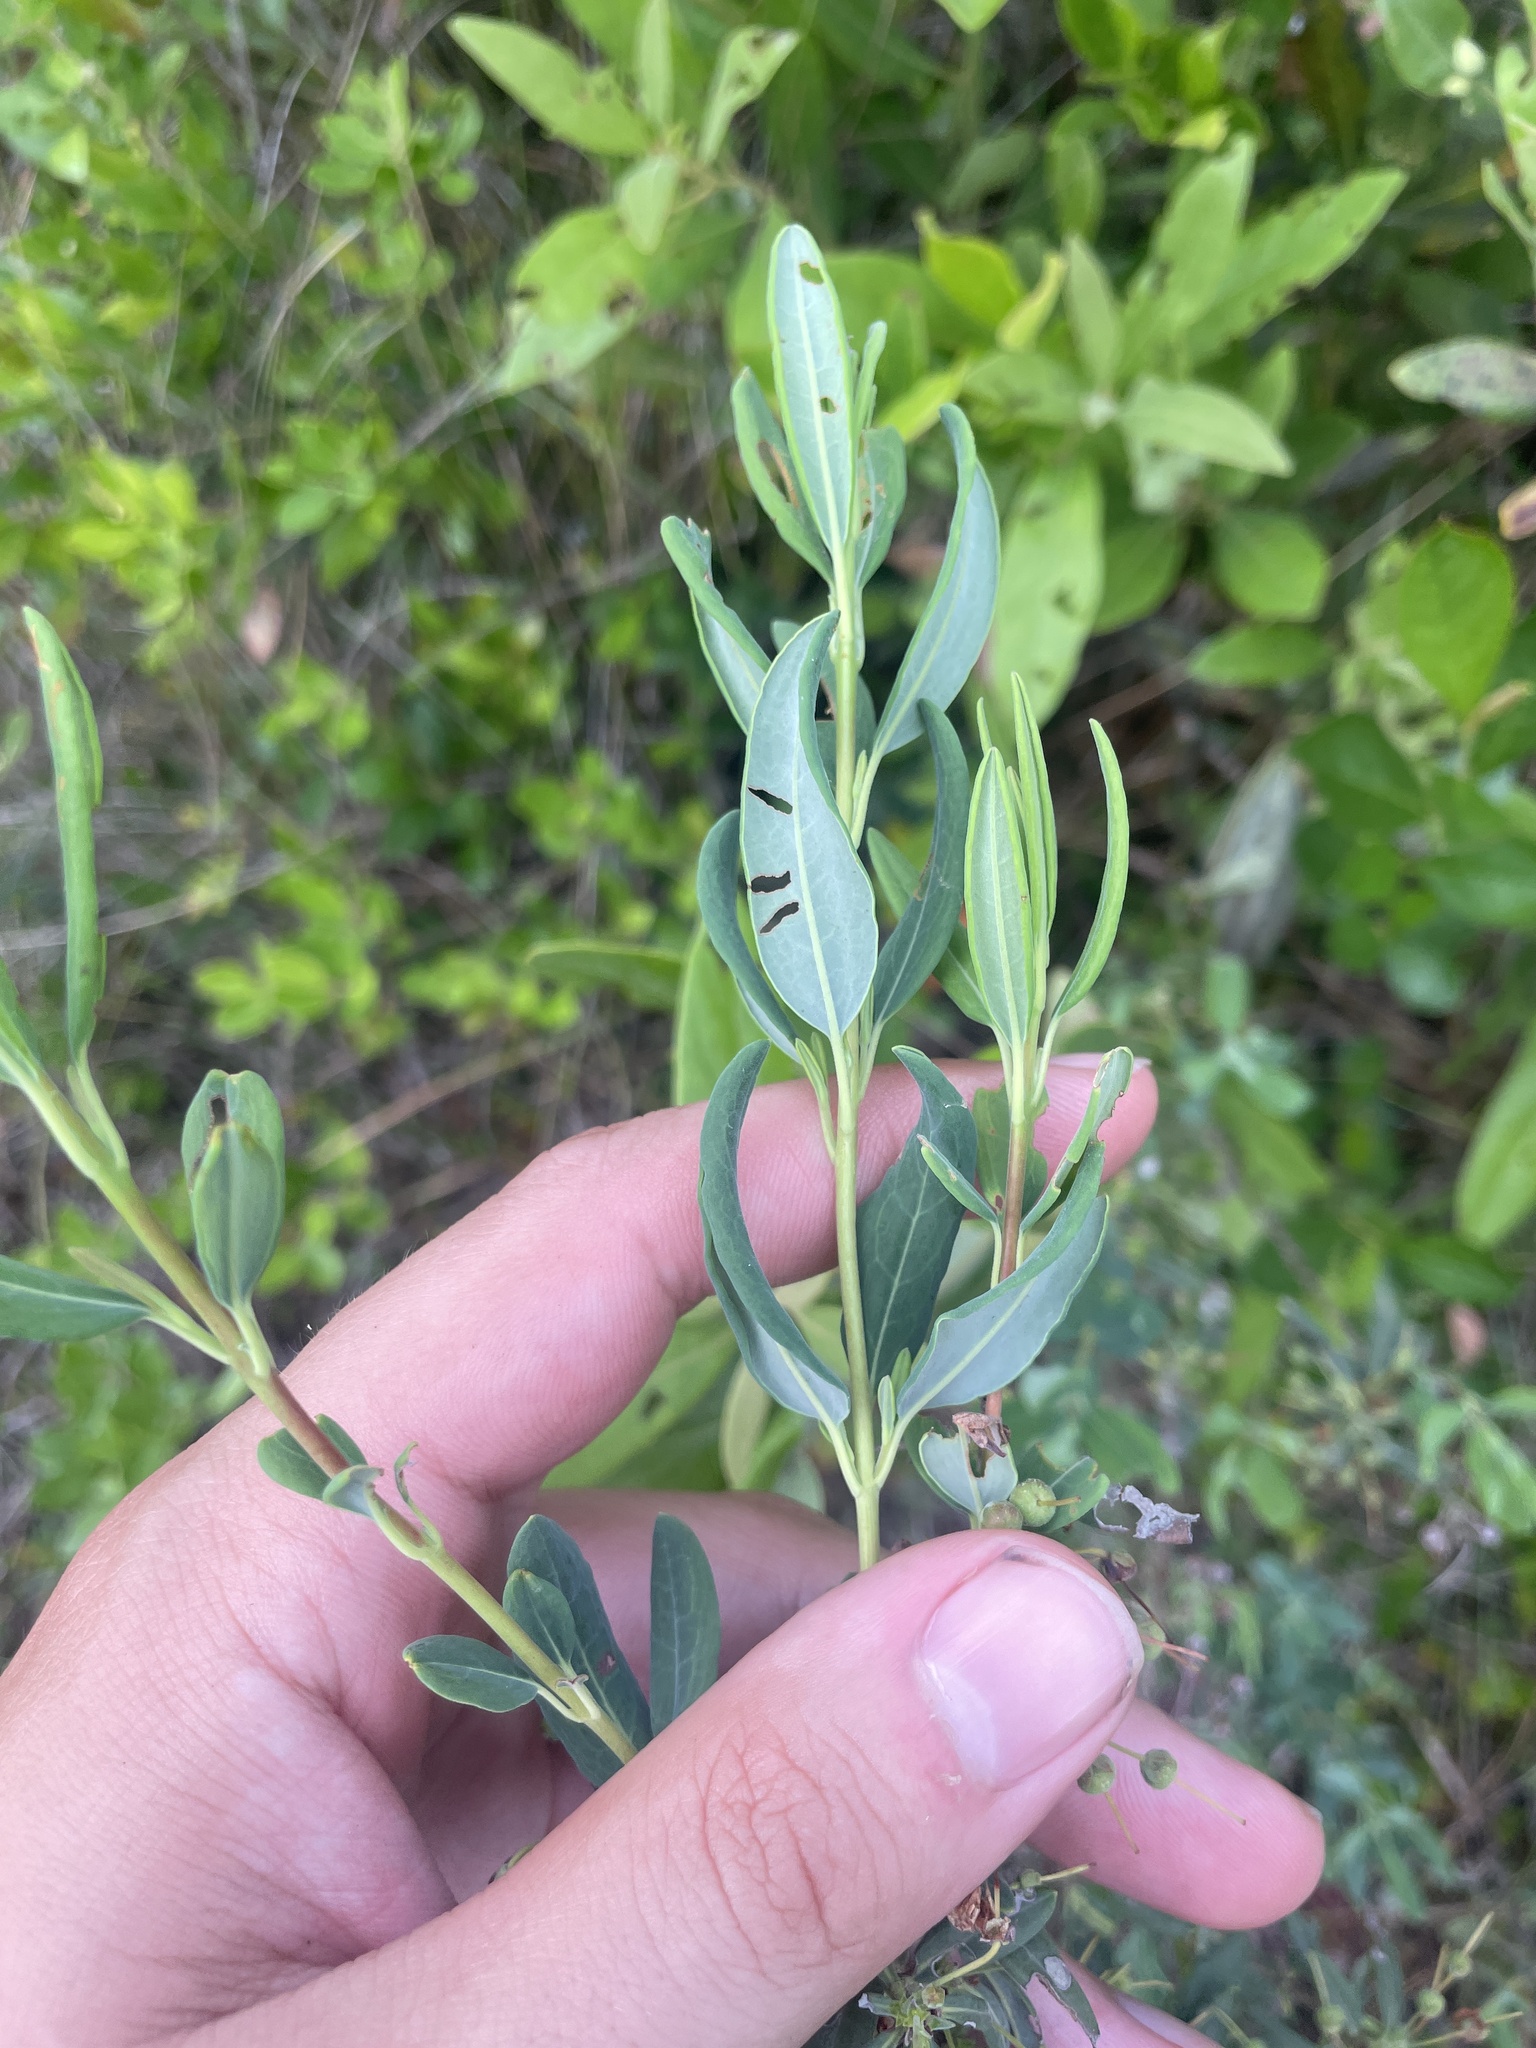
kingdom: Plantae
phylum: Tracheophyta
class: Magnoliopsida
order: Ericales
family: Ericaceae
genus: Kalmia
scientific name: Kalmia angustifolia
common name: Sheep-laurel
